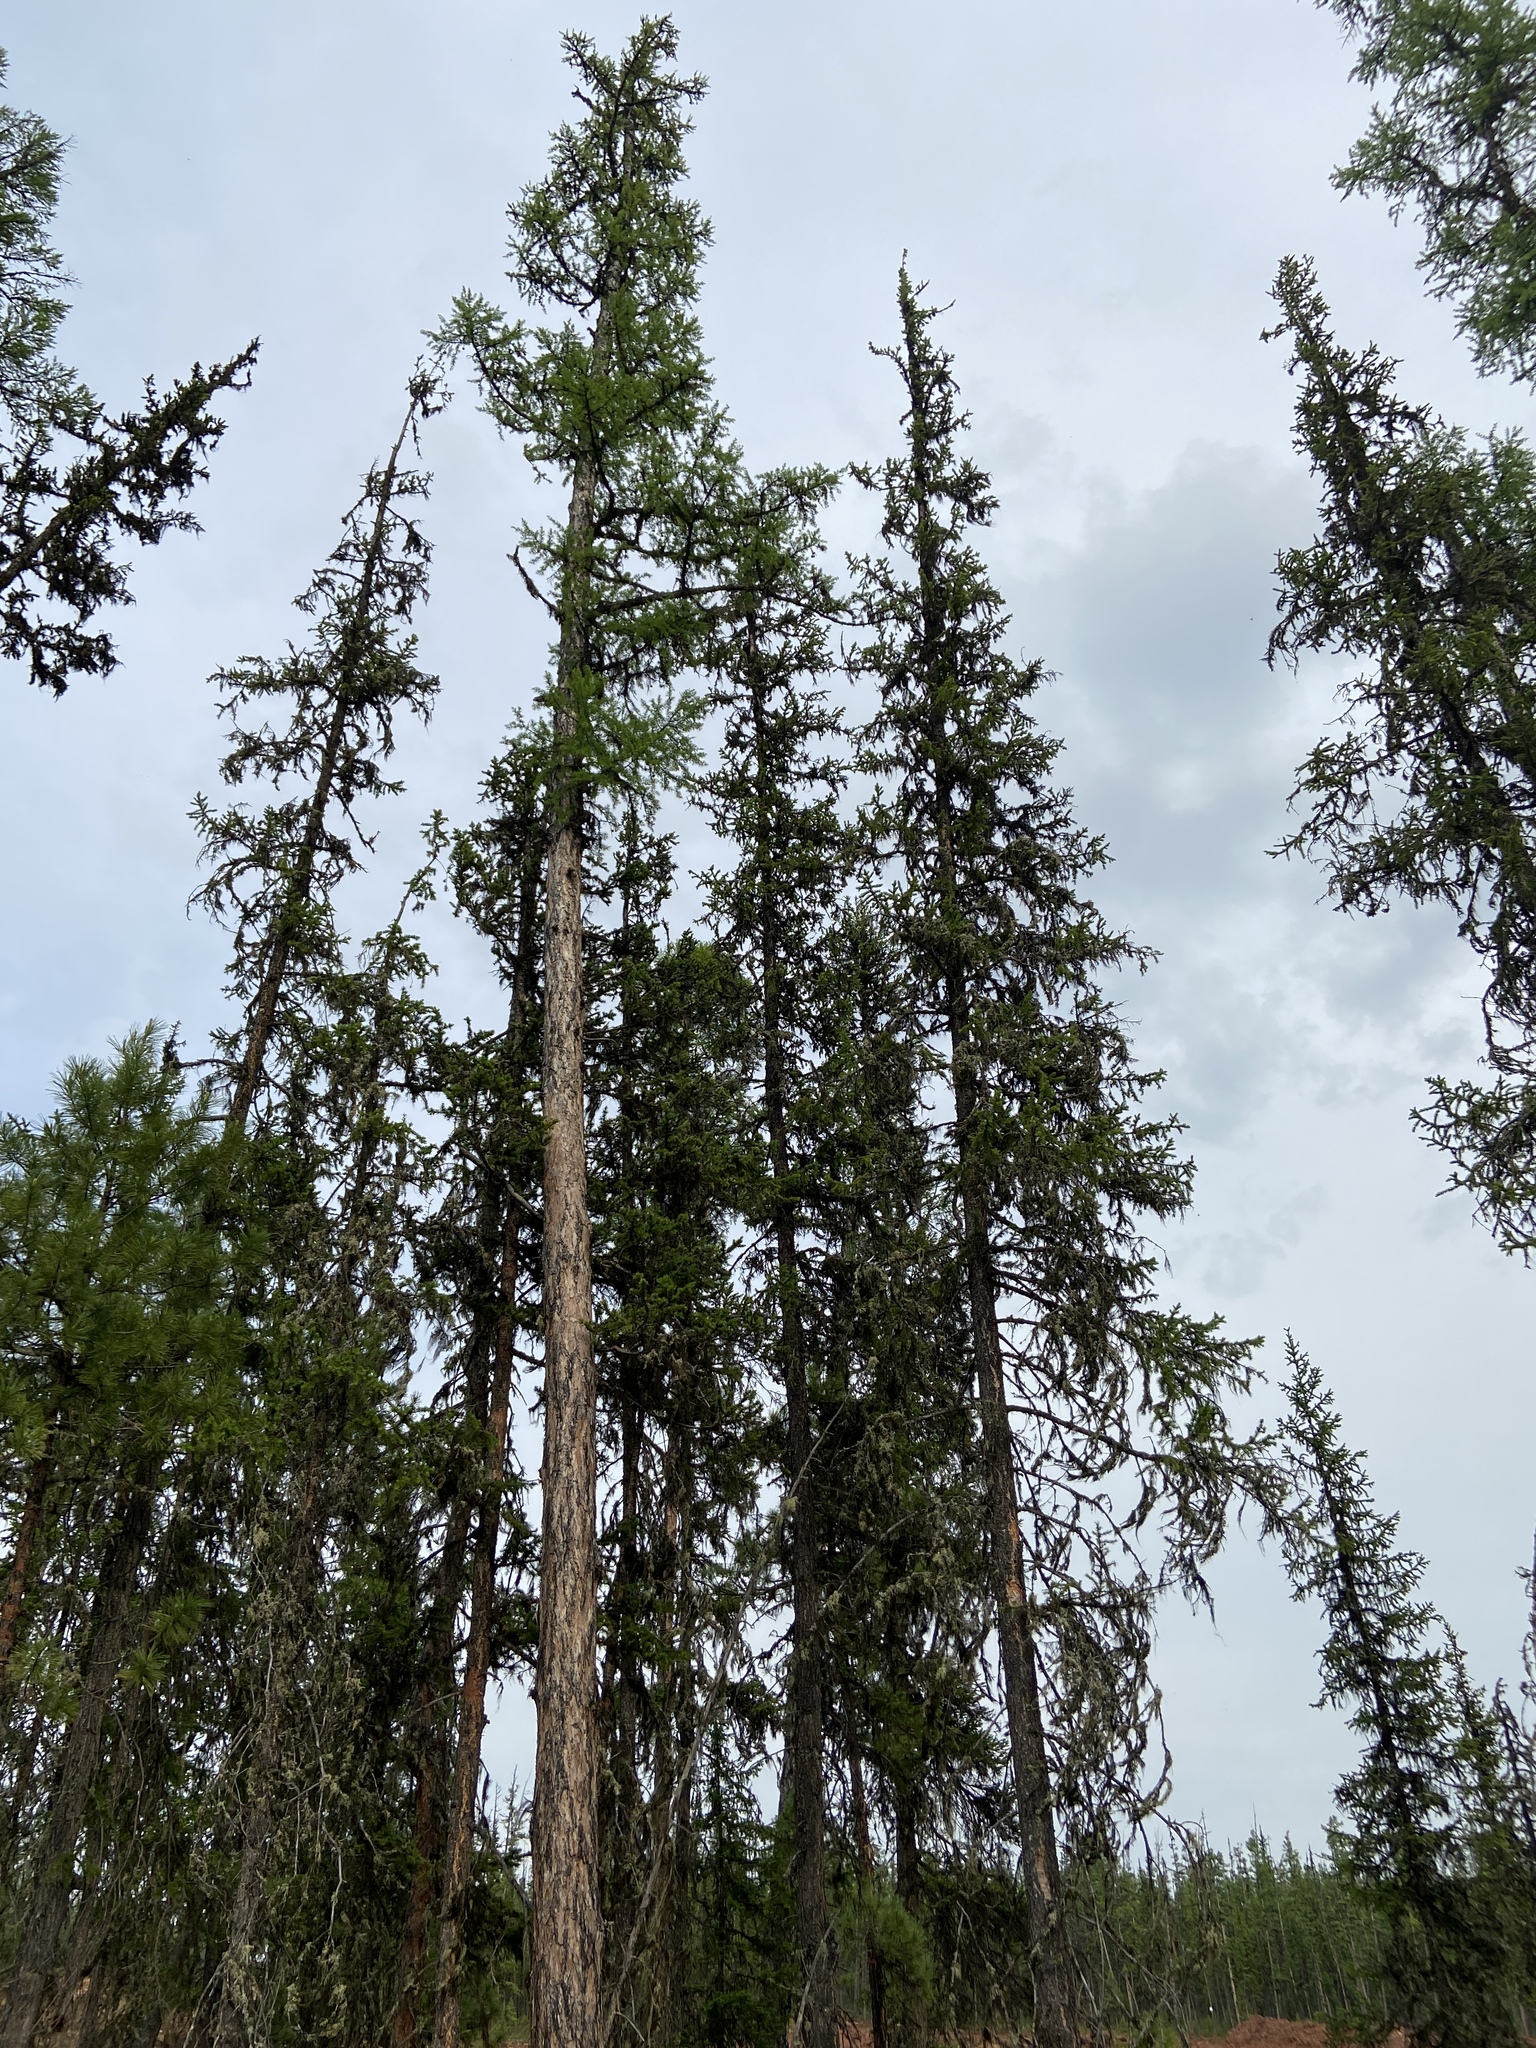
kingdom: Plantae
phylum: Tracheophyta
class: Pinopsida
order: Pinales
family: Pinaceae
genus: Larix
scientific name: Larix sibirica
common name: Siberian larch
